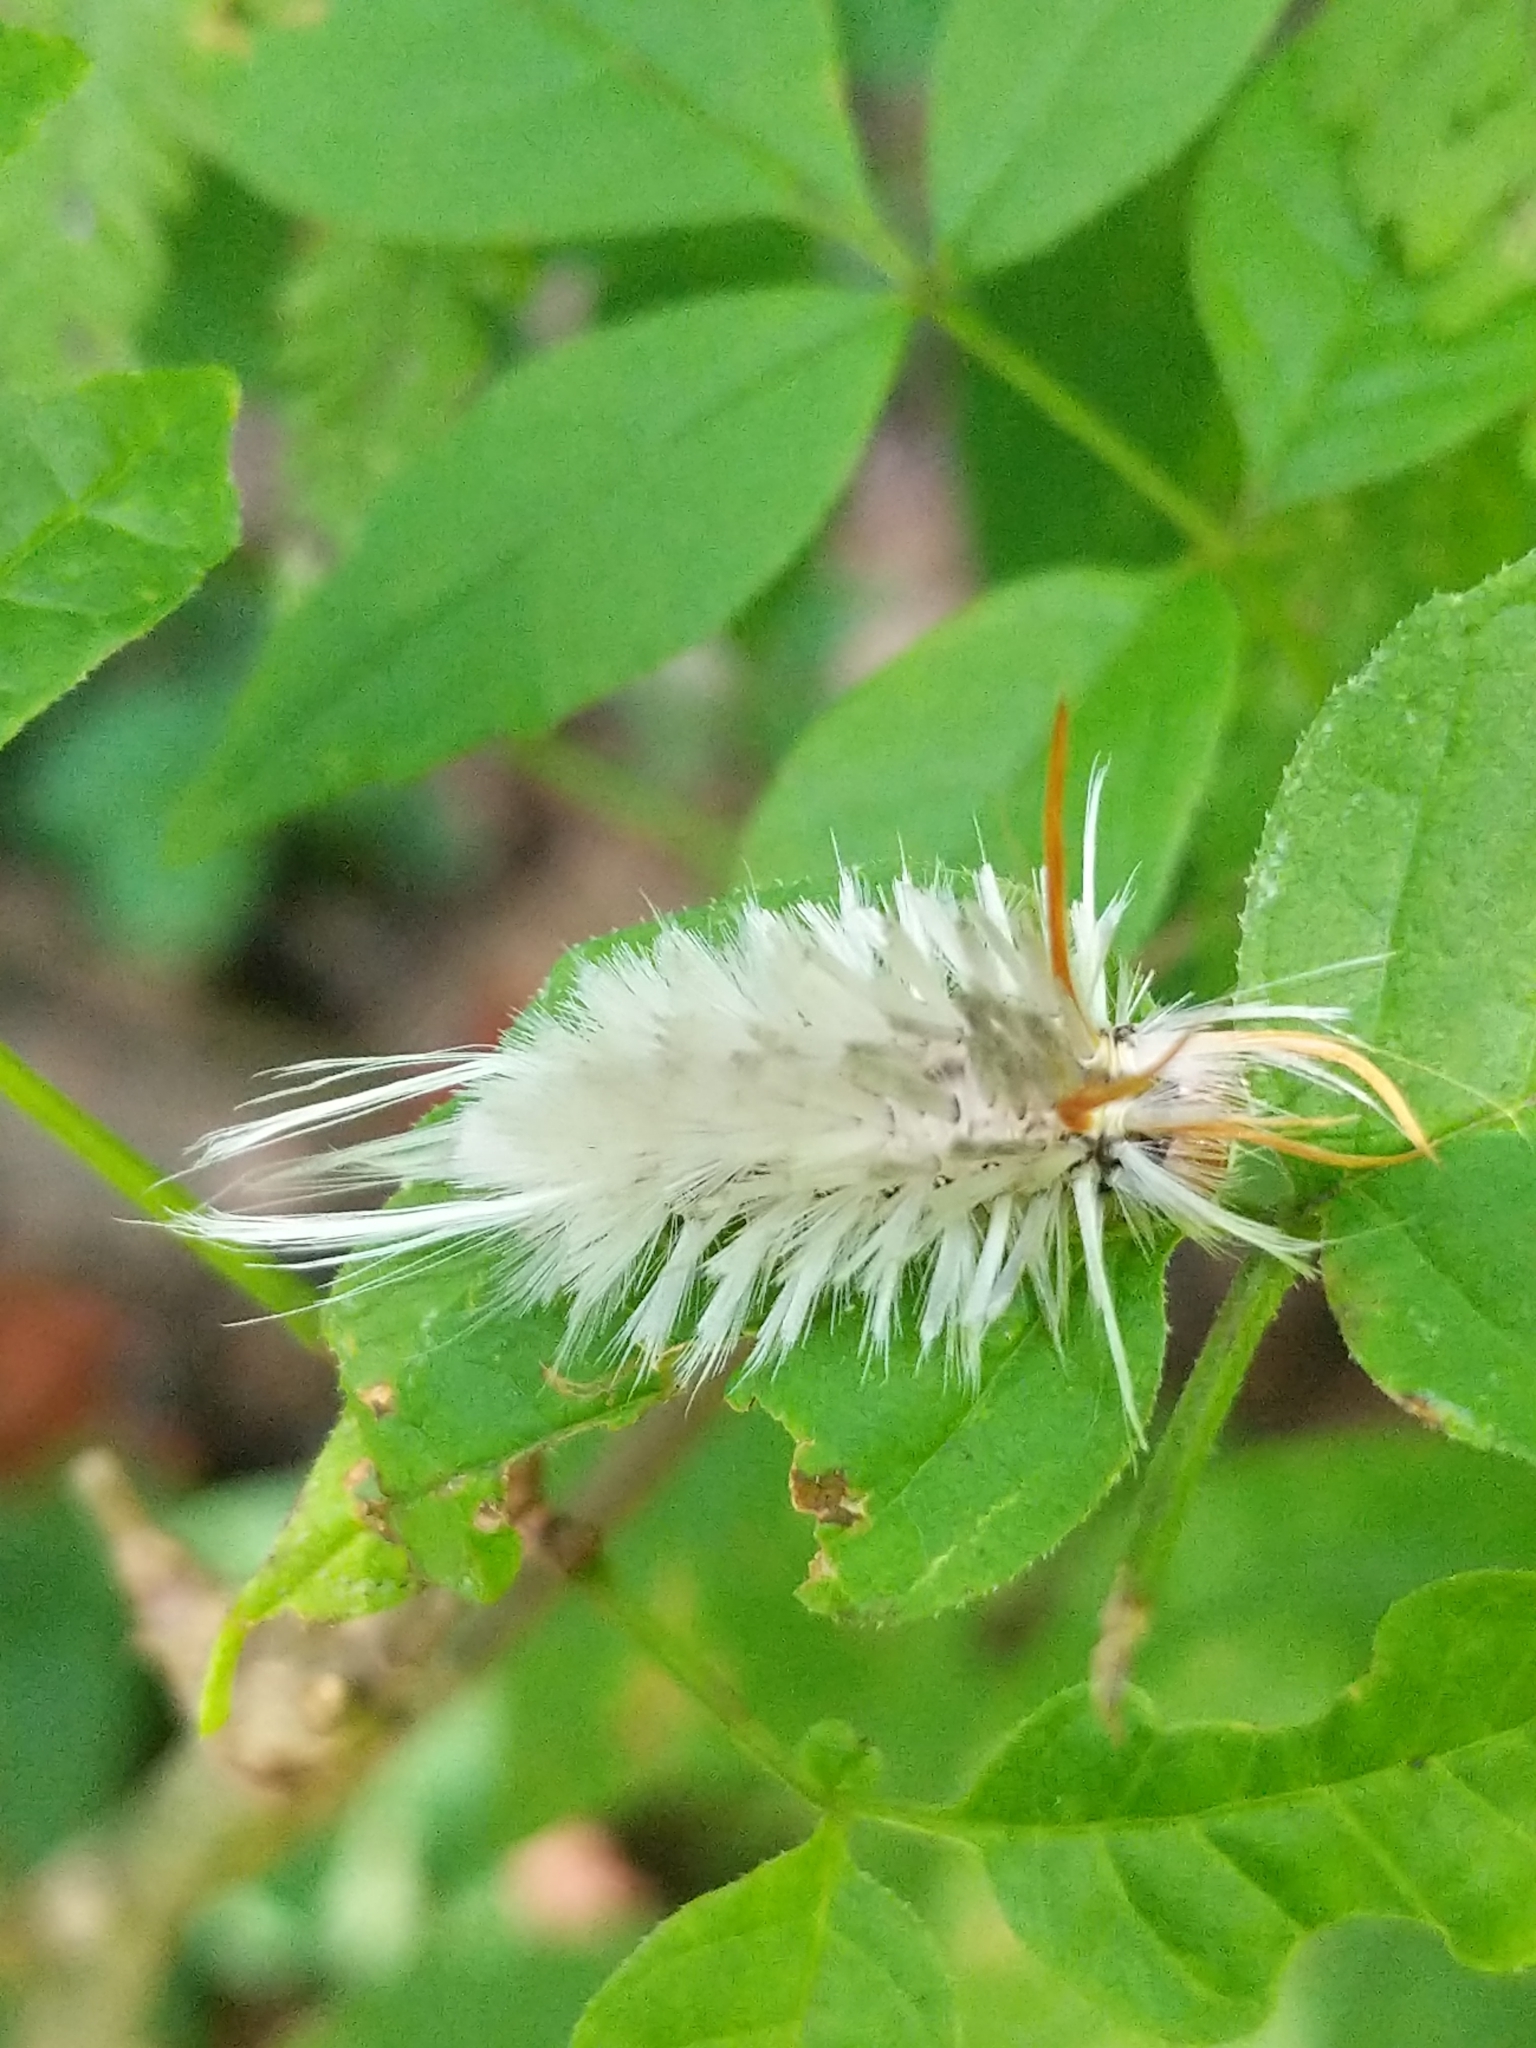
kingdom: Animalia
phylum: Arthropoda
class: Insecta
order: Lepidoptera
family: Erebidae
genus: Halysidota
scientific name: Halysidota harrisii
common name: Sycamore tussock moth
